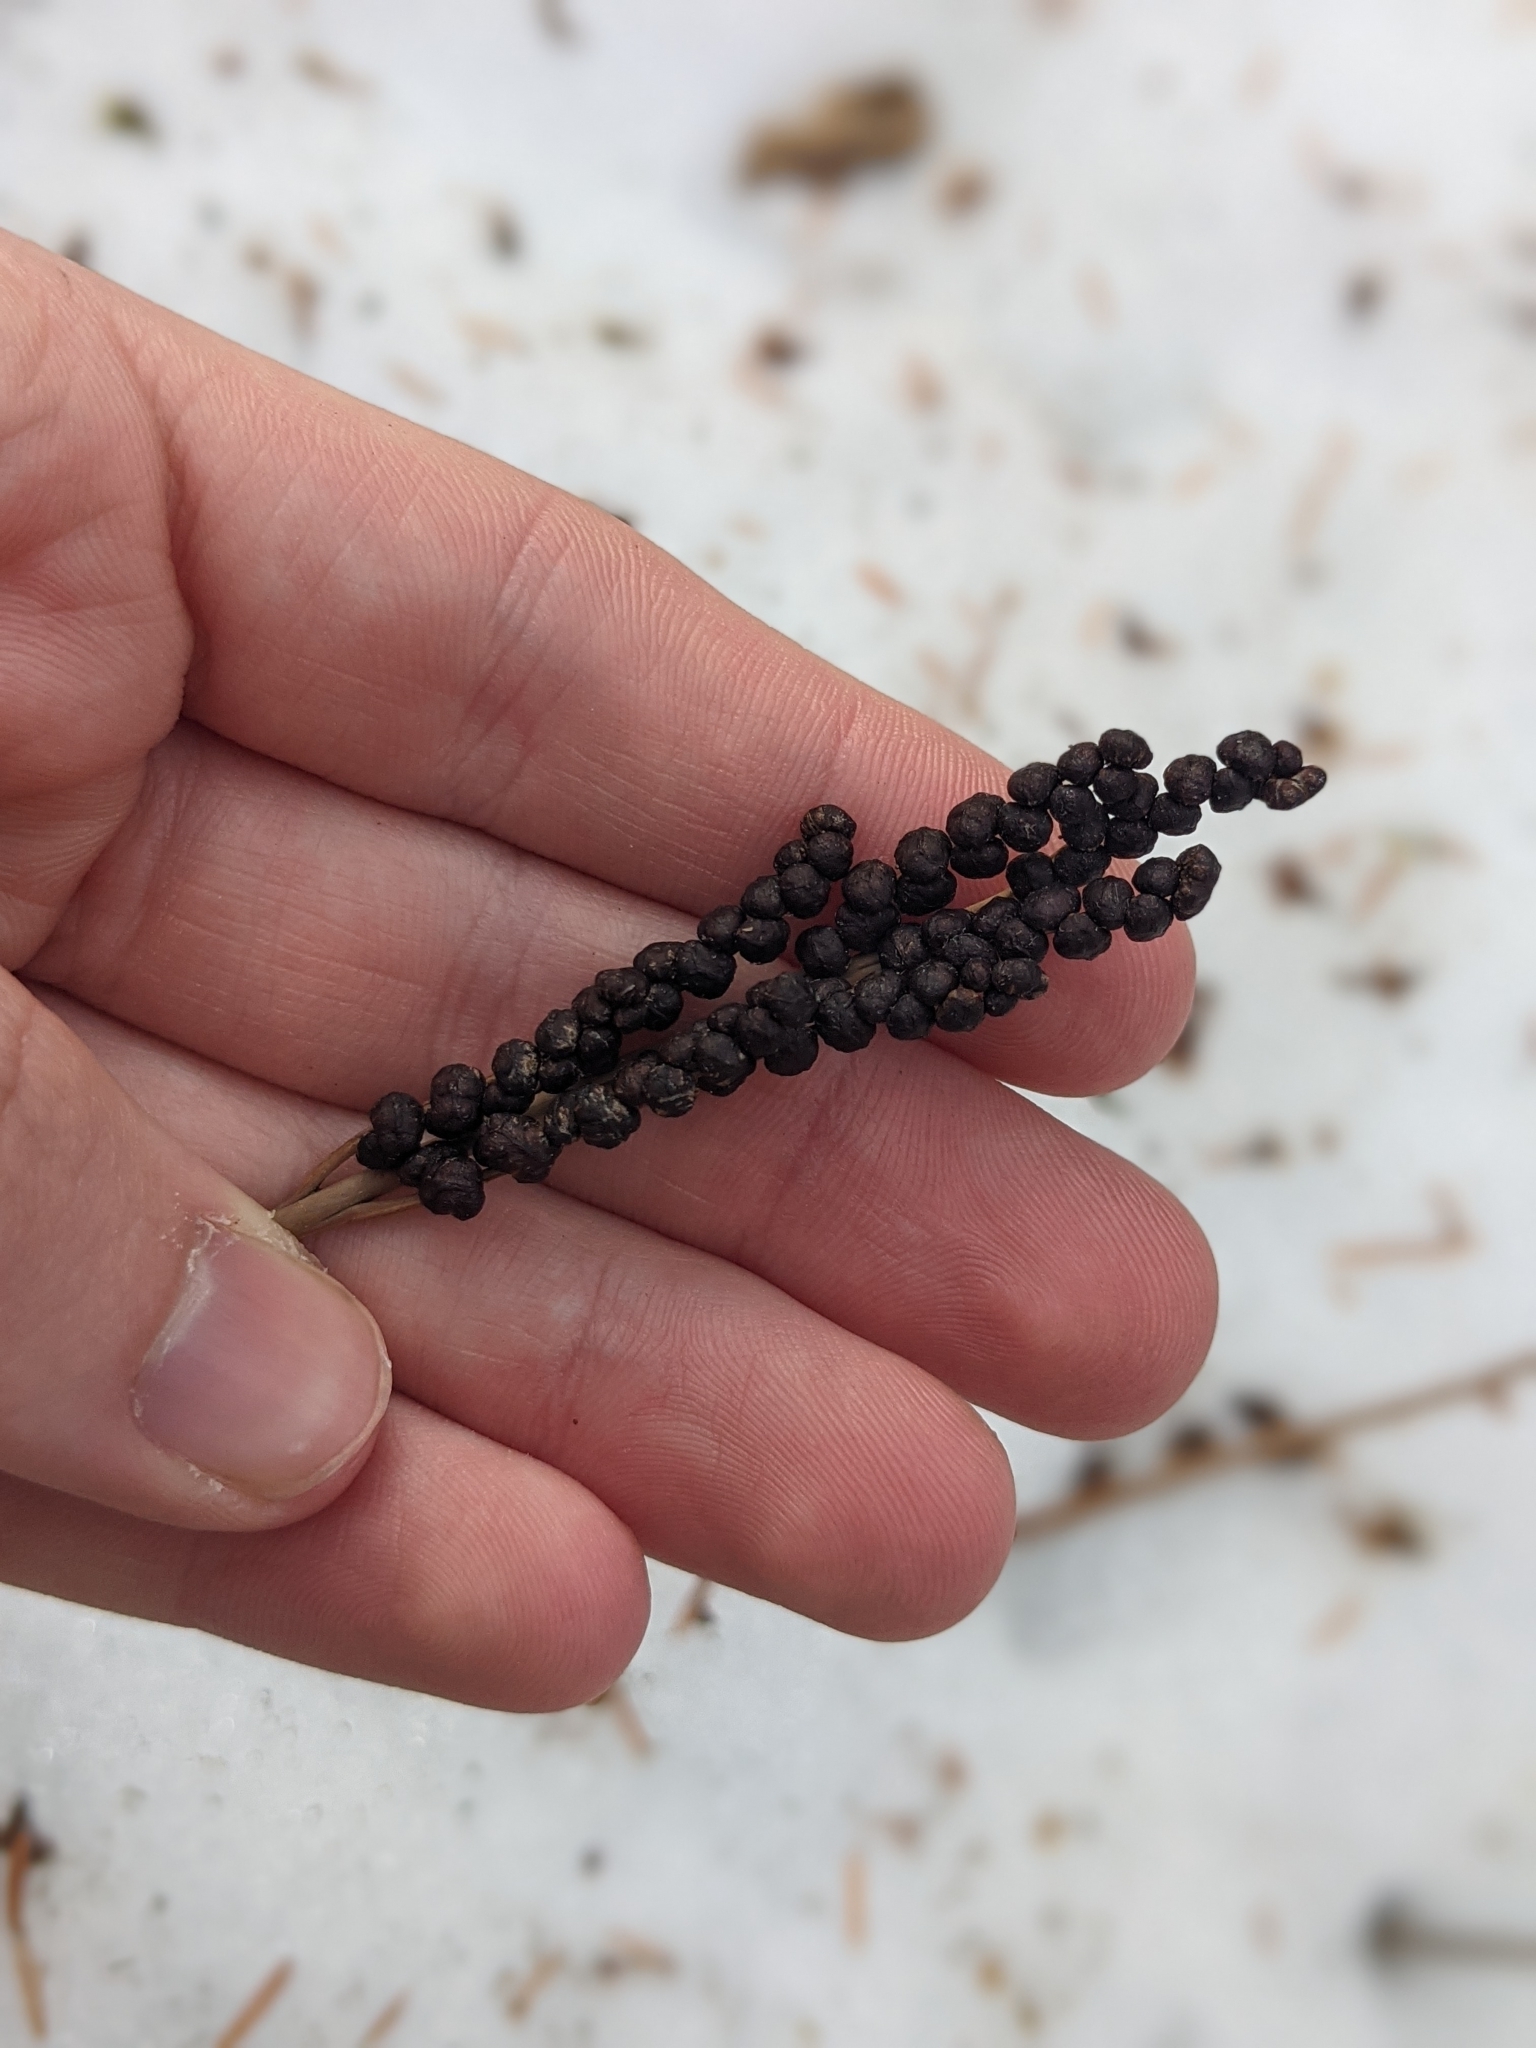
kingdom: Plantae
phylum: Tracheophyta
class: Polypodiopsida
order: Polypodiales
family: Onocleaceae
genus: Onoclea
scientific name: Onoclea sensibilis
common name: Sensitive fern
